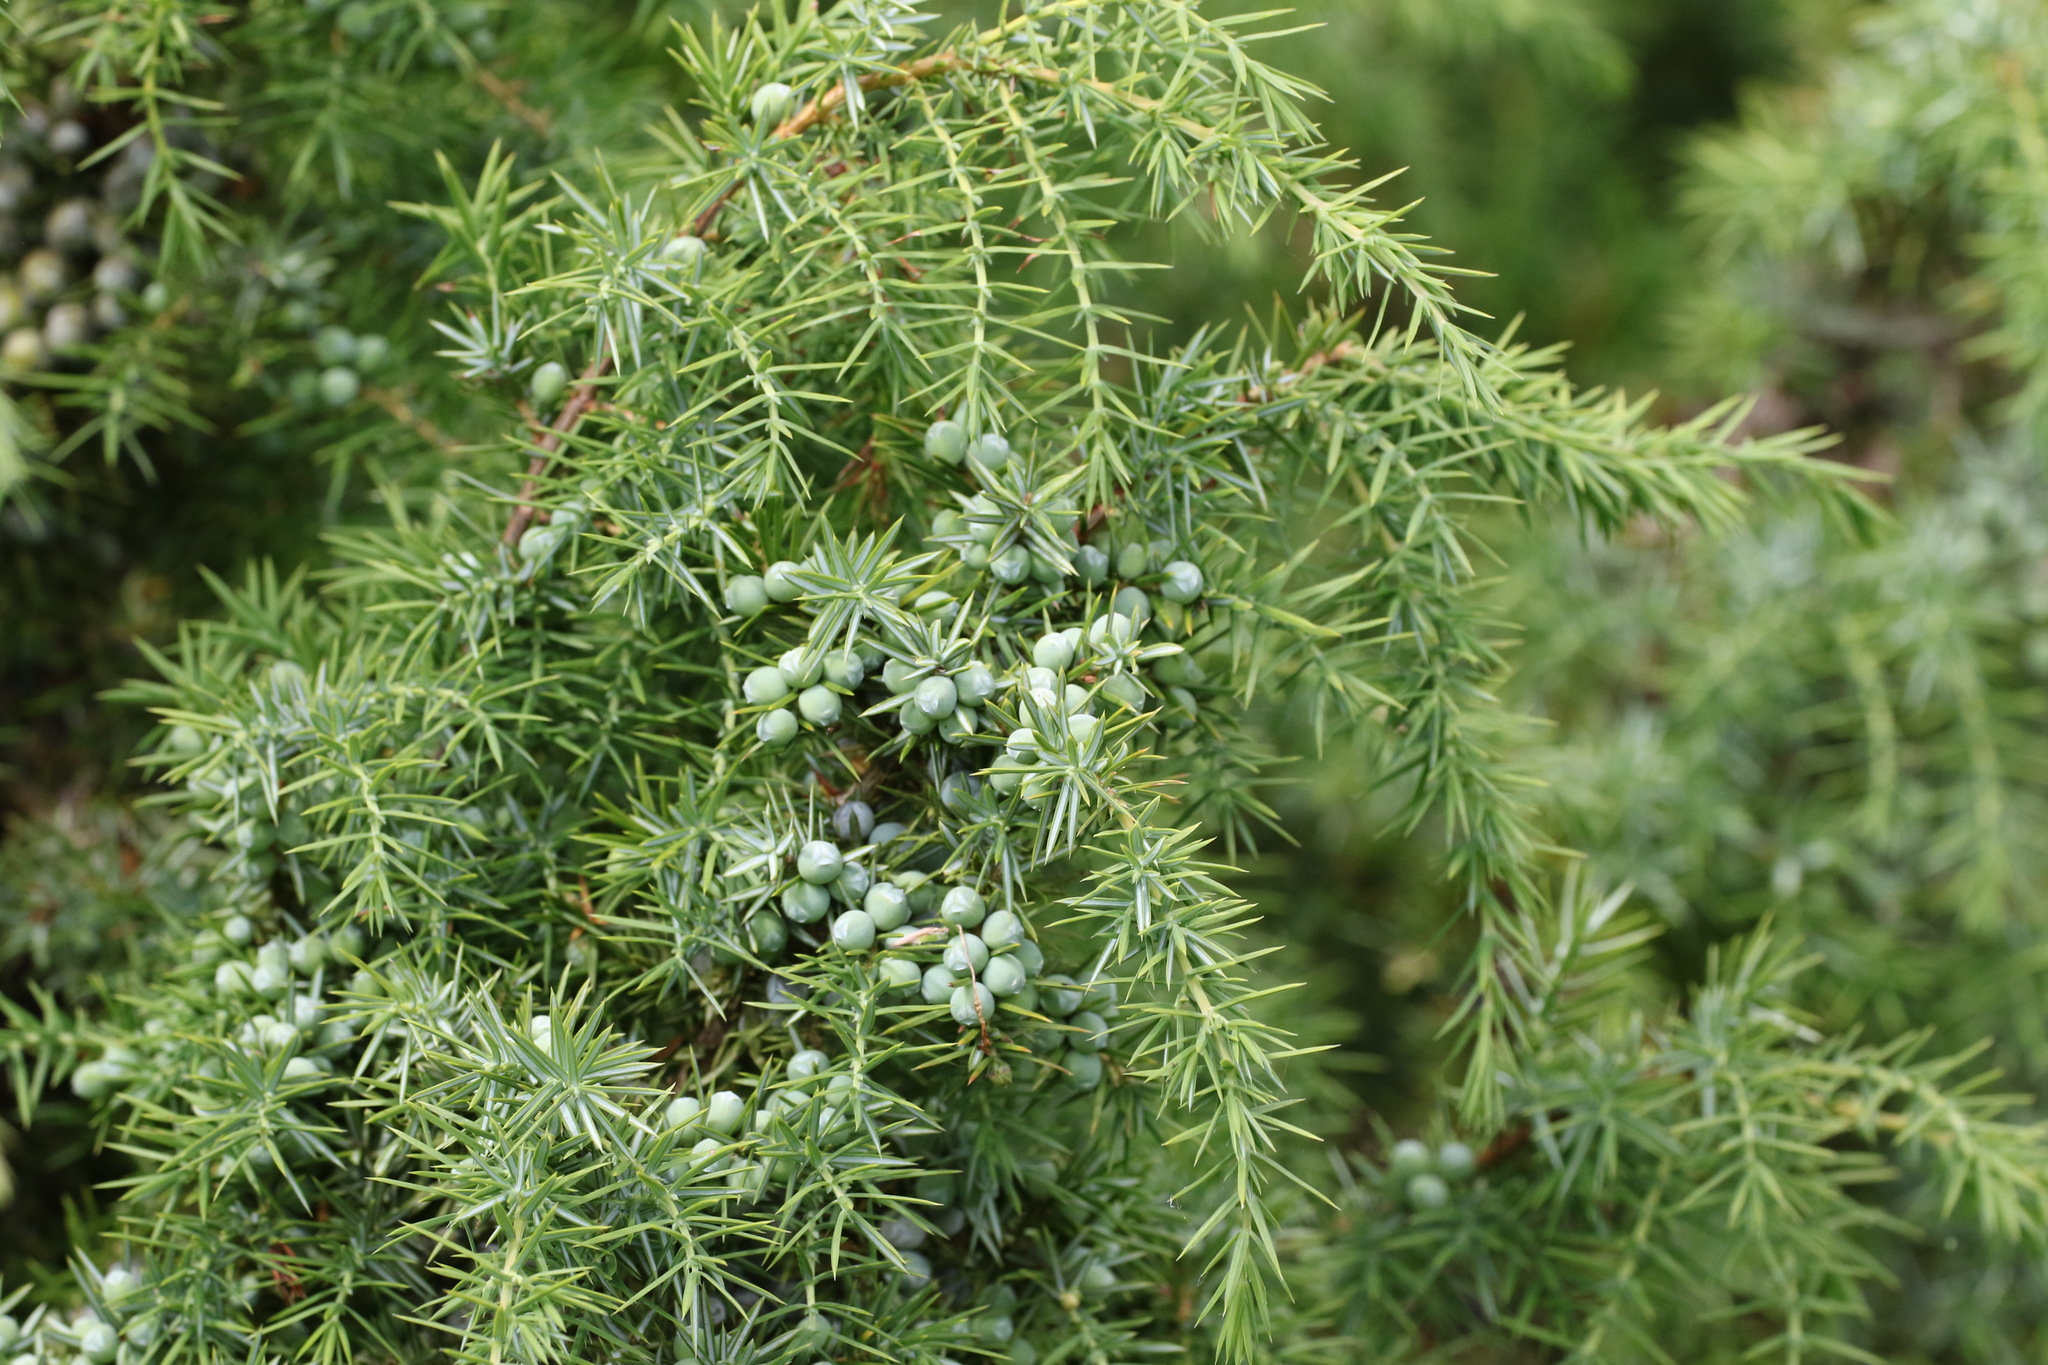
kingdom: Plantae
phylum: Tracheophyta
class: Pinopsida
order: Pinales
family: Cupressaceae
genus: Juniperus
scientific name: Juniperus communis
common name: Common juniper
